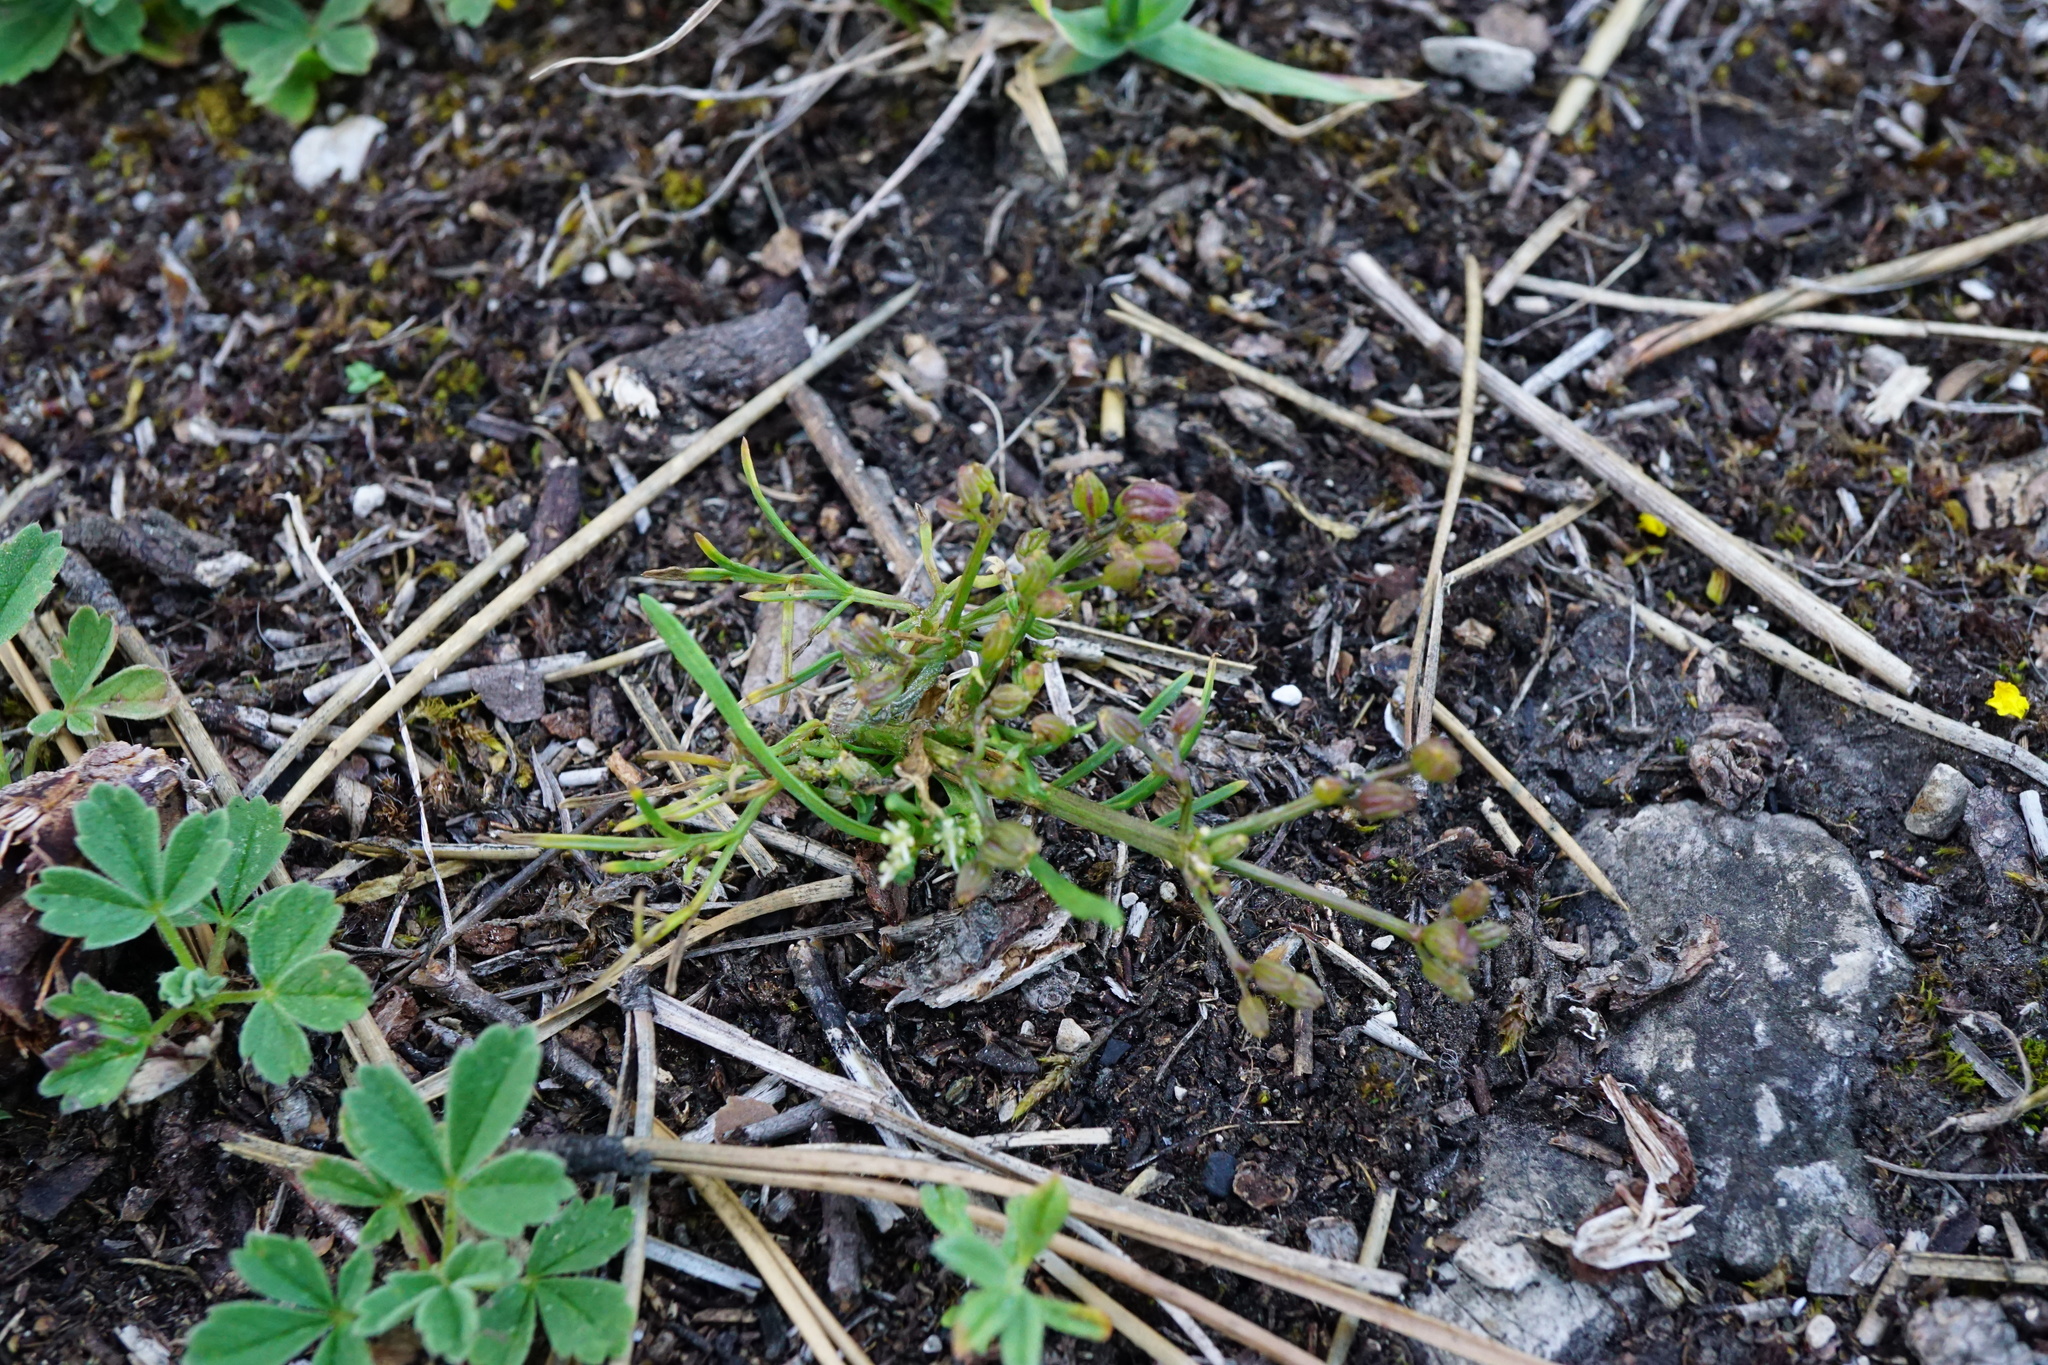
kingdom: Plantae
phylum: Tracheophyta
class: Magnoliopsida
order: Apiales
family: Apiaceae
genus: Trinia
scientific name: Trinia glauca
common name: Honewort
